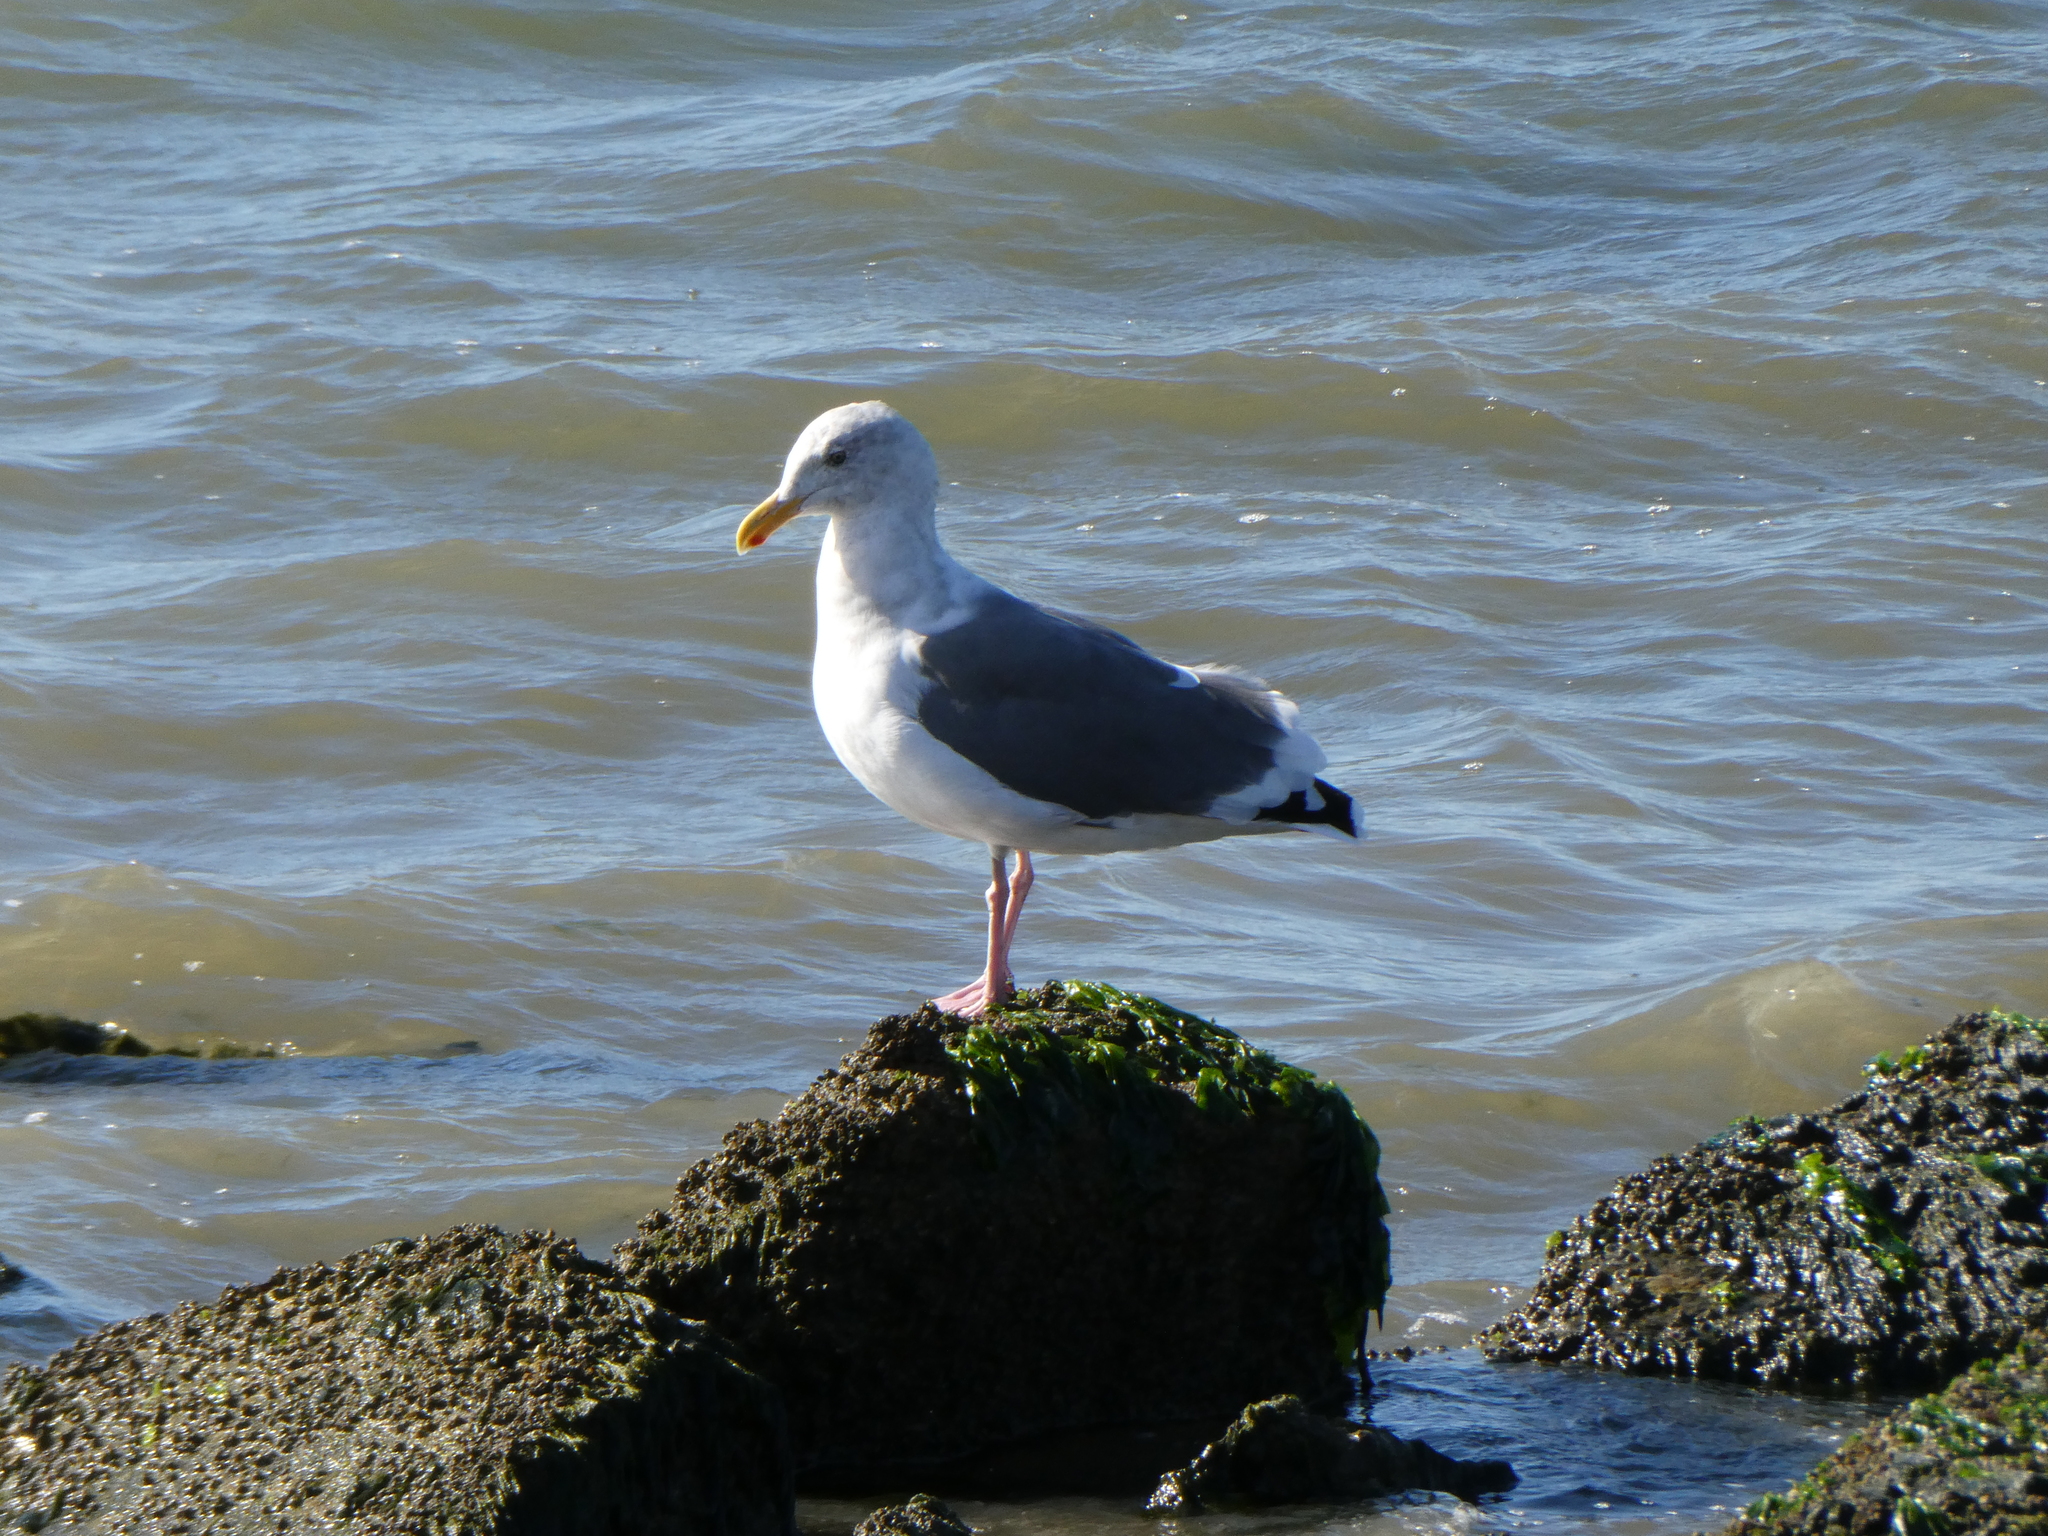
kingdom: Animalia
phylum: Chordata
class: Aves
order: Charadriiformes
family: Laridae
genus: Larus
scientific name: Larus occidentalis
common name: Western gull
